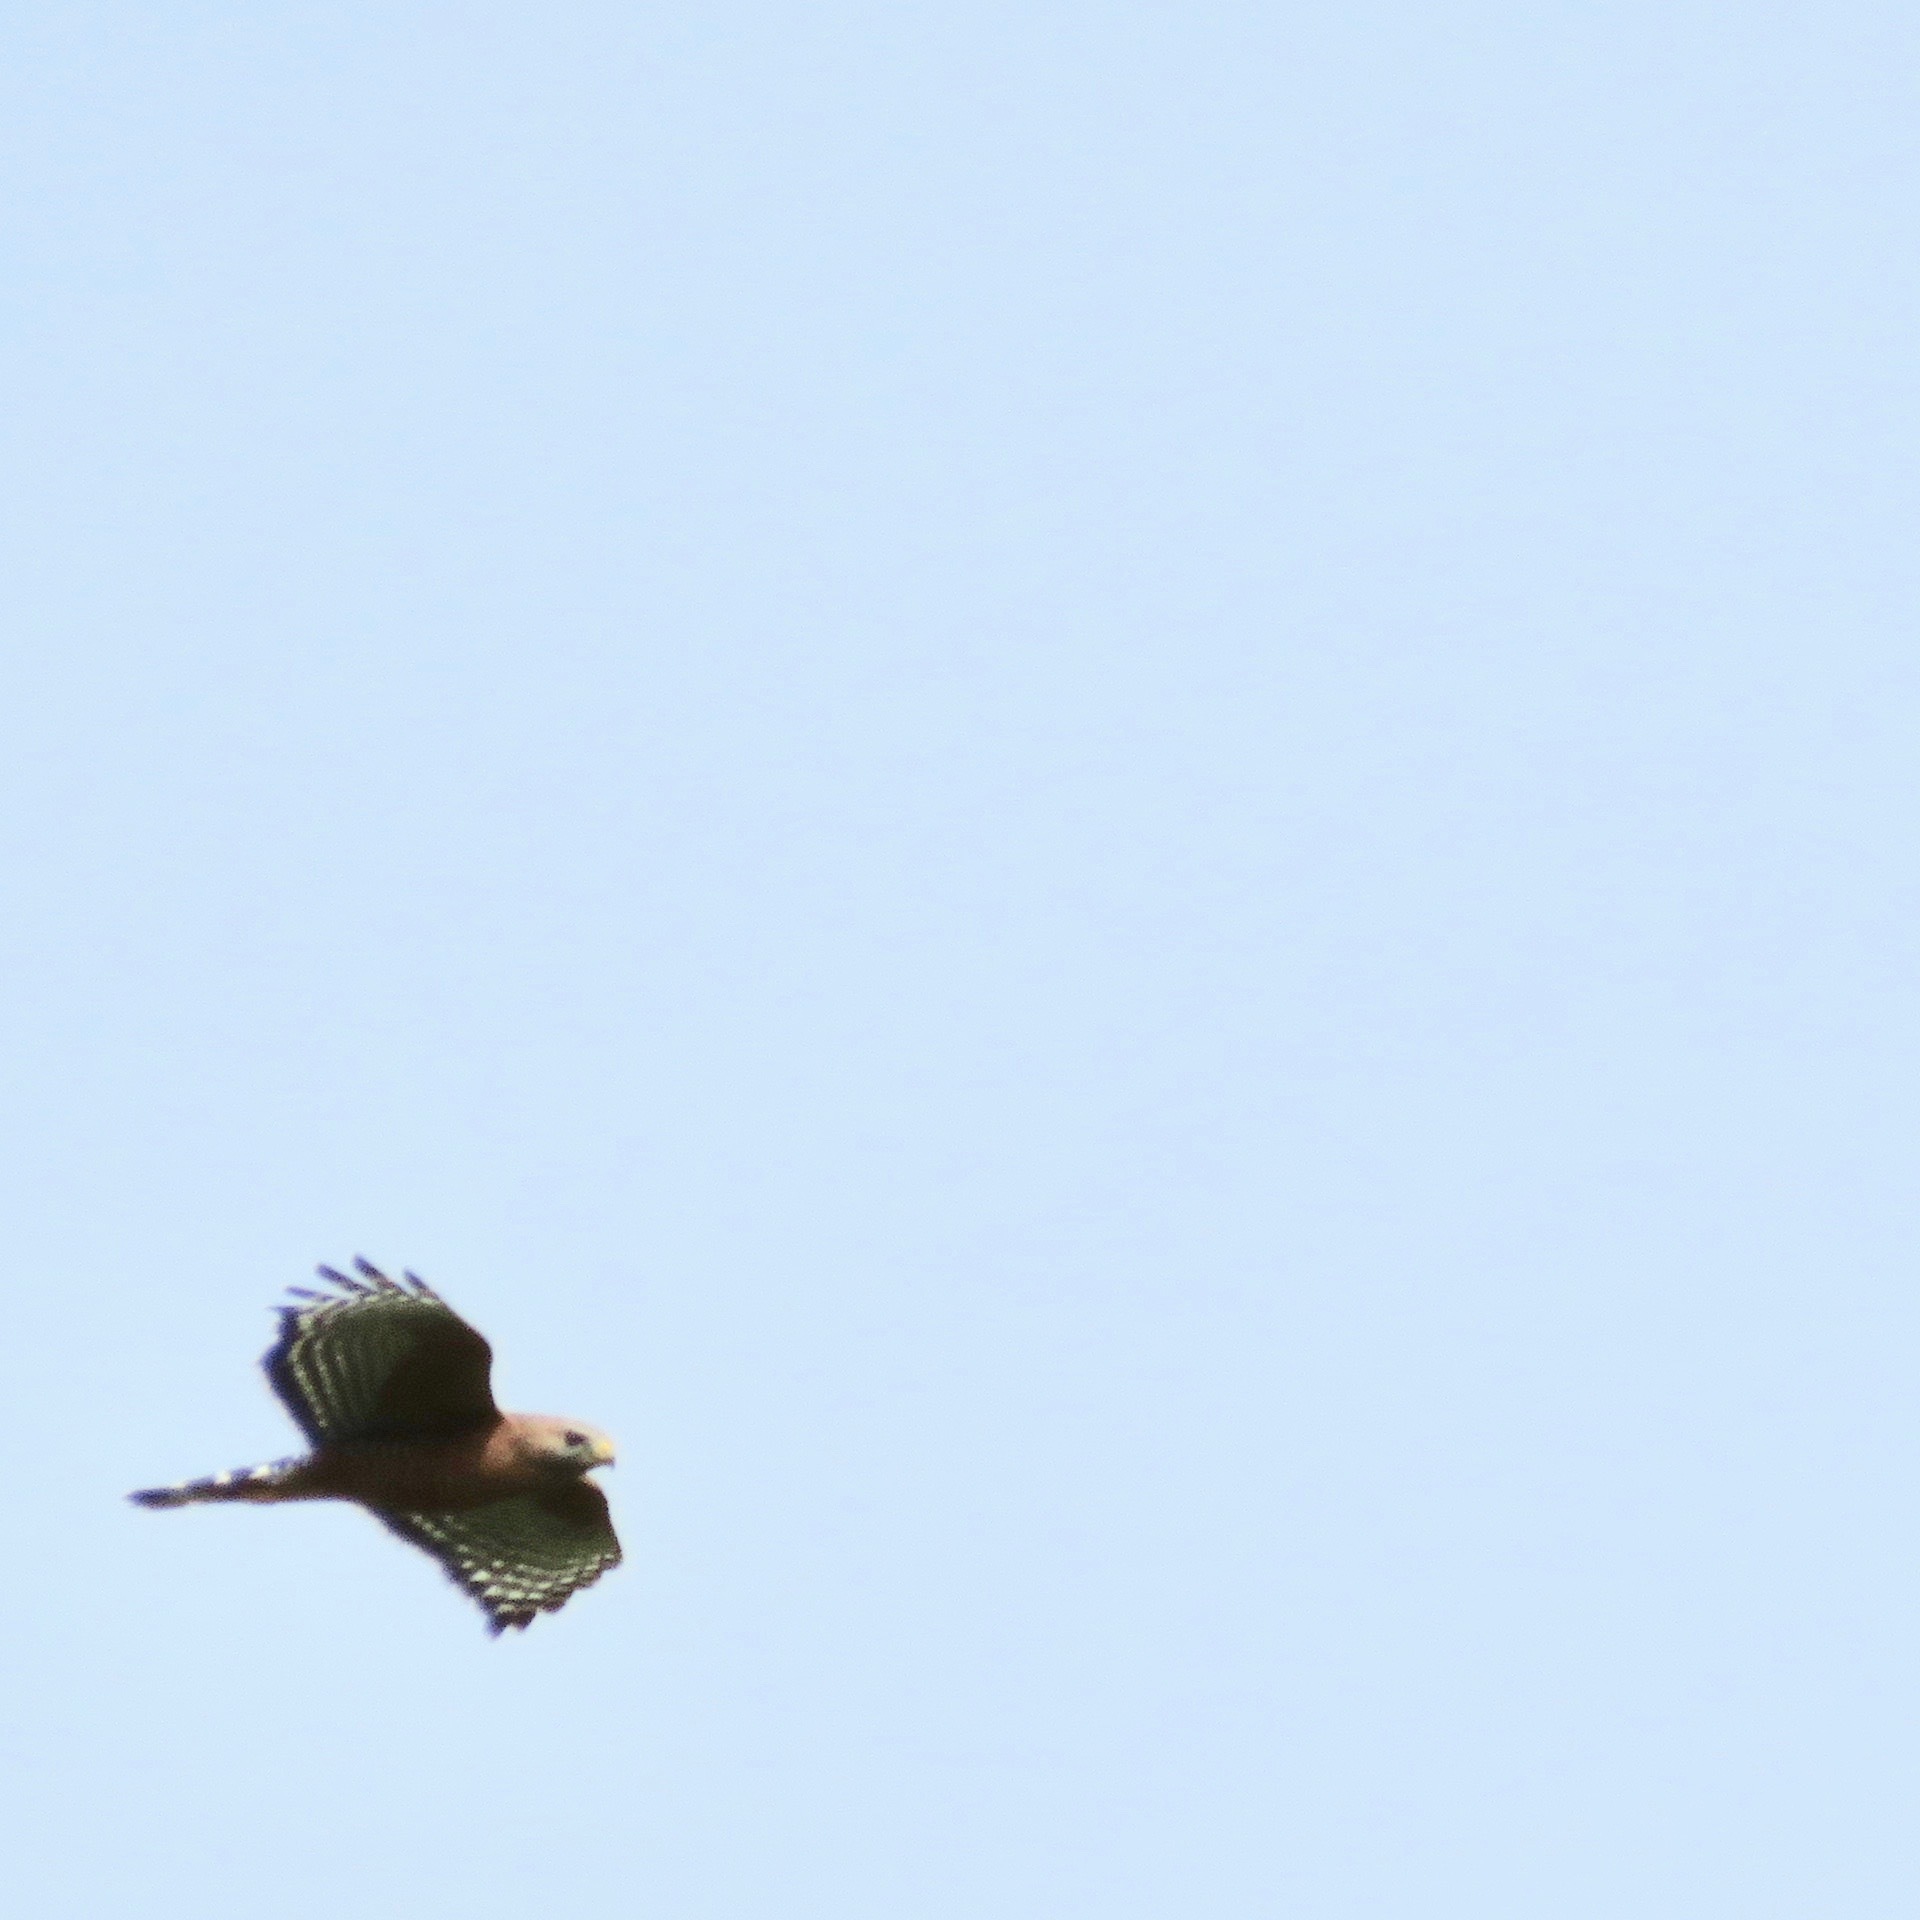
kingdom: Animalia
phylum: Chordata
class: Aves
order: Accipitriformes
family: Accipitridae
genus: Buteo
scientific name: Buteo lineatus
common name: Red-shouldered hawk
